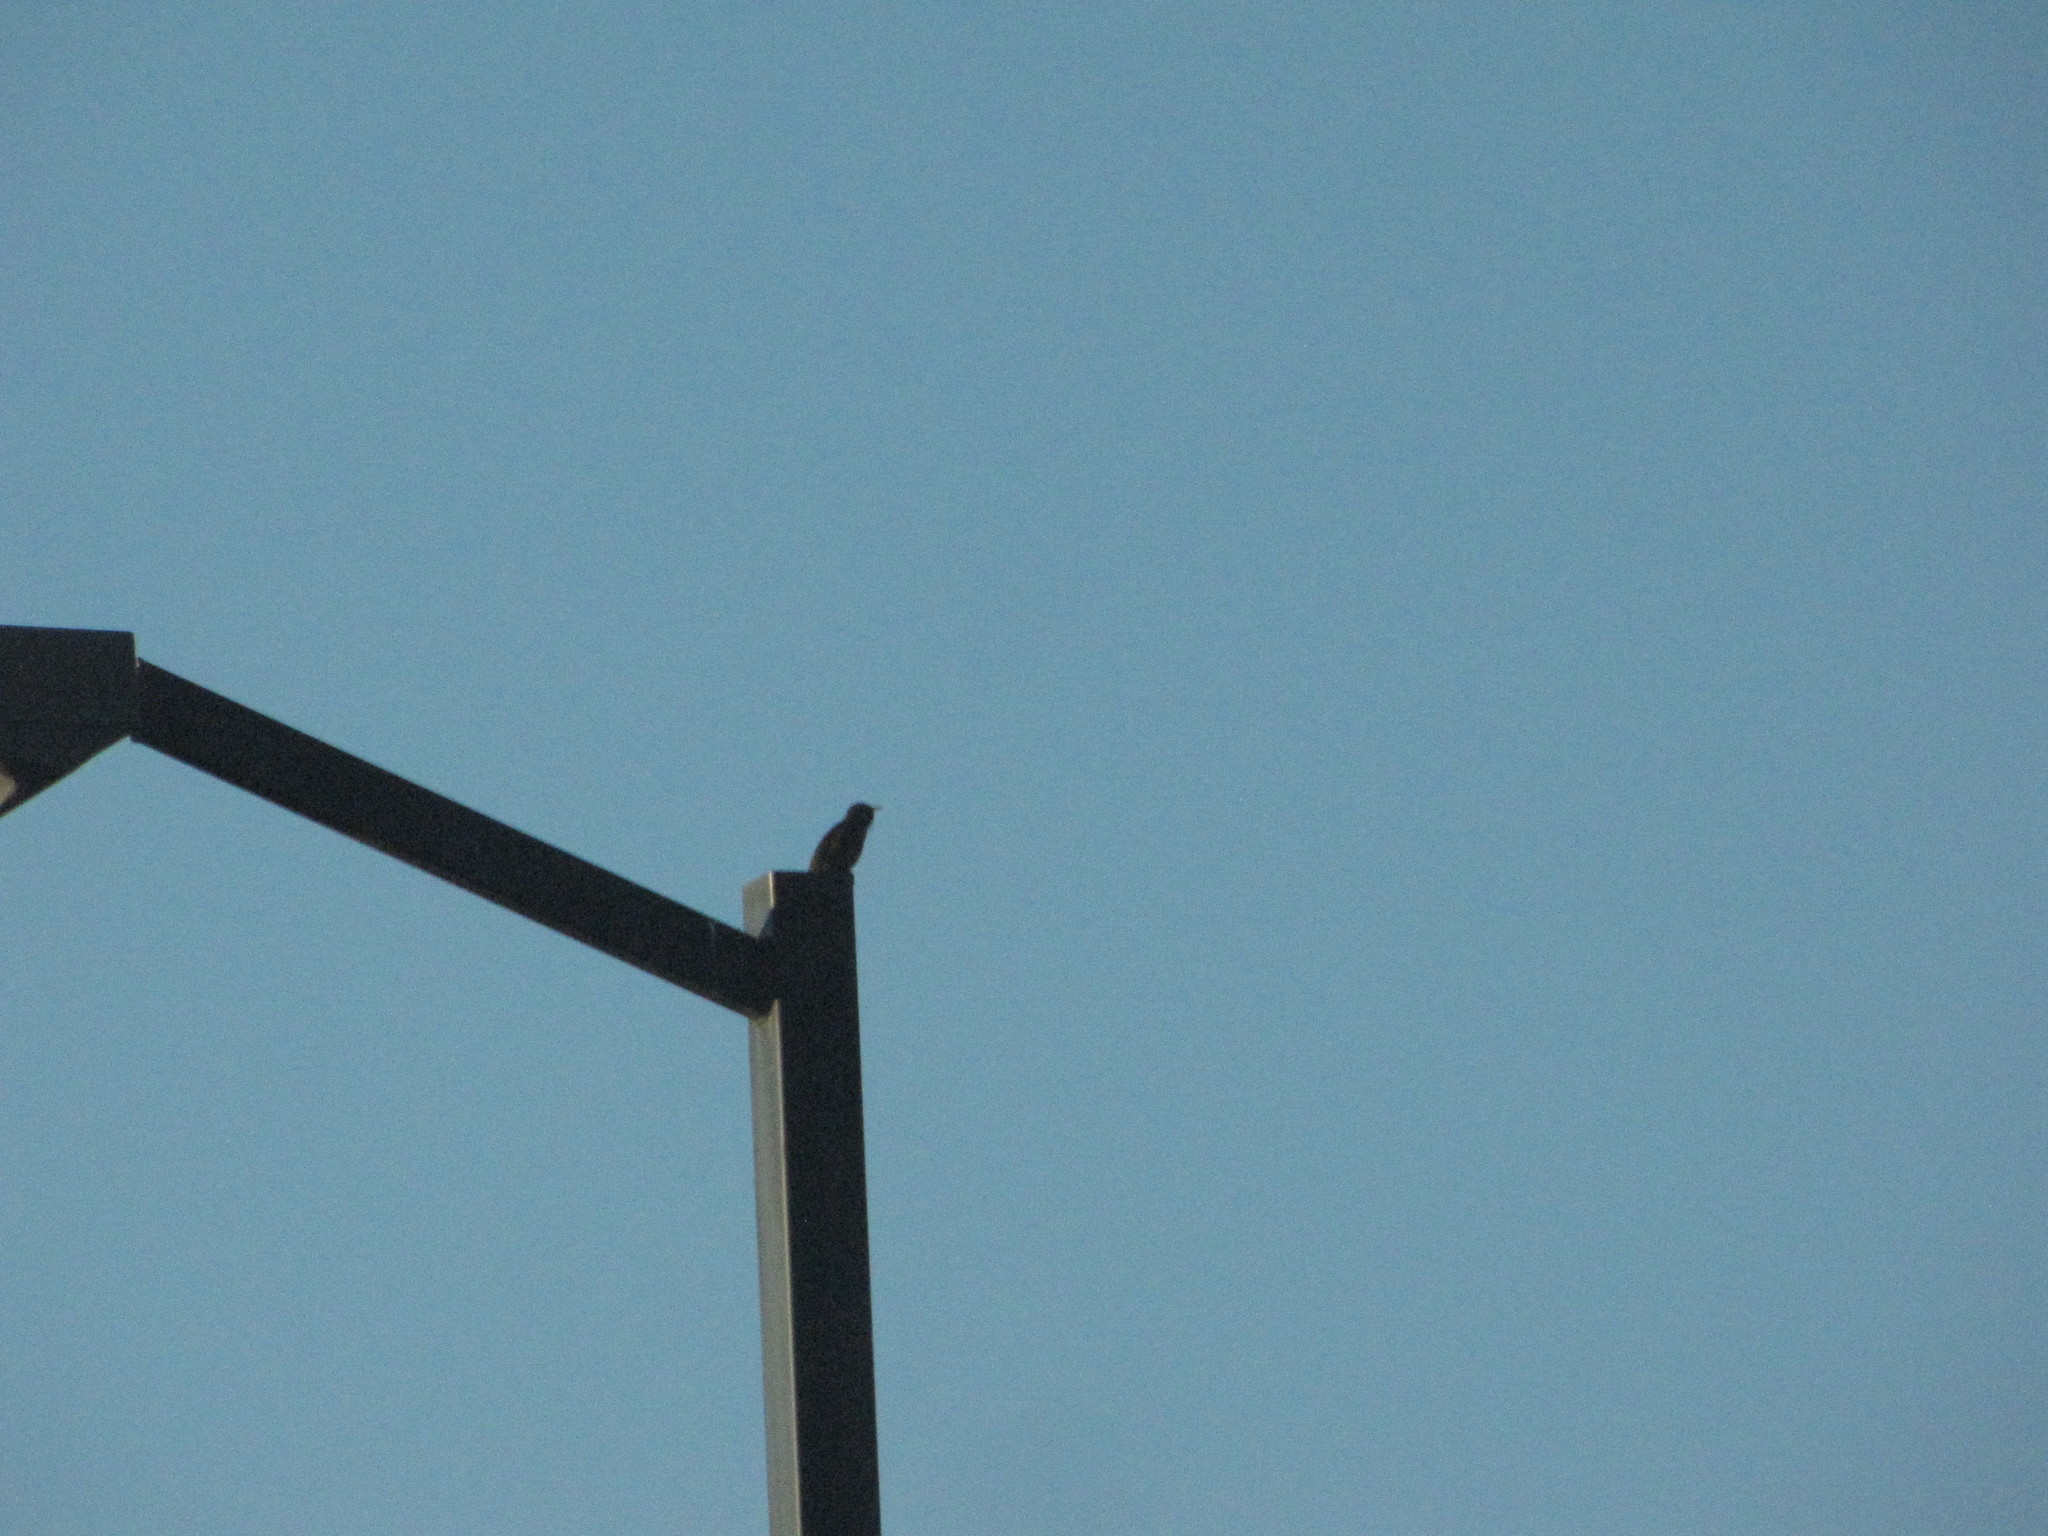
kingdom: Animalia
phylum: Chordata
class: Aves
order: Passeriformes
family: Sturnidae
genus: Sturnus
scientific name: Sturnus vulgaris
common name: Common starling
